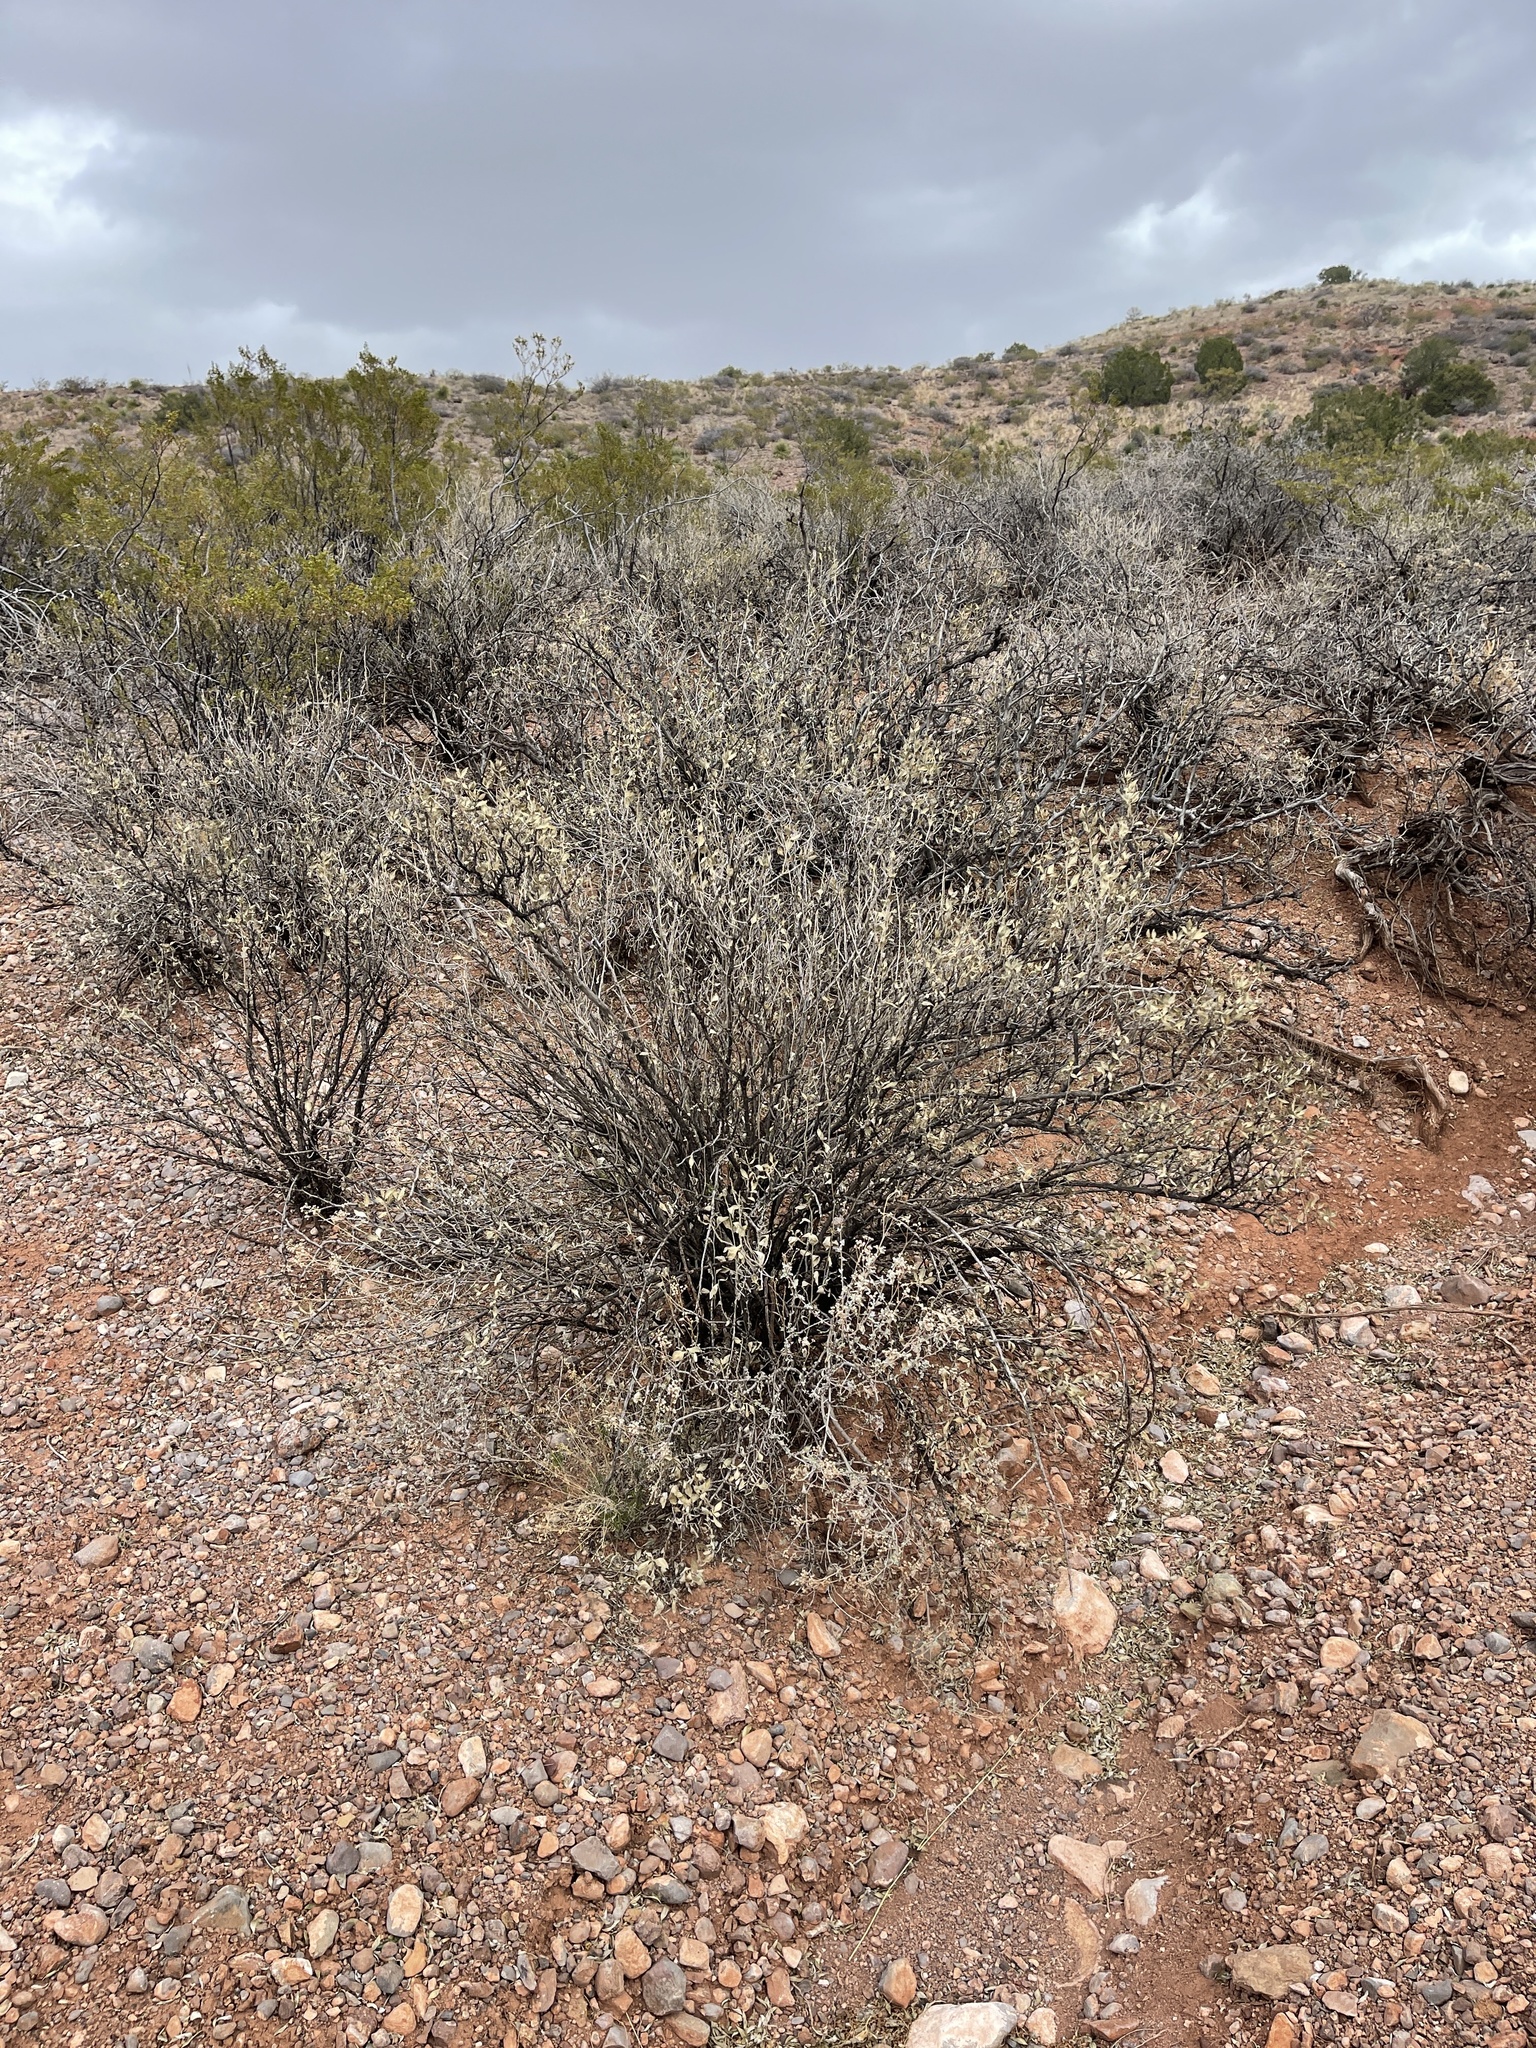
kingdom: Plantae
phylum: Tracheophyta
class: Magnoliopsida
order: Asterales
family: Asteraceae
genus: Flourensia
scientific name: Flourensia cernua
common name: Varnishbush
